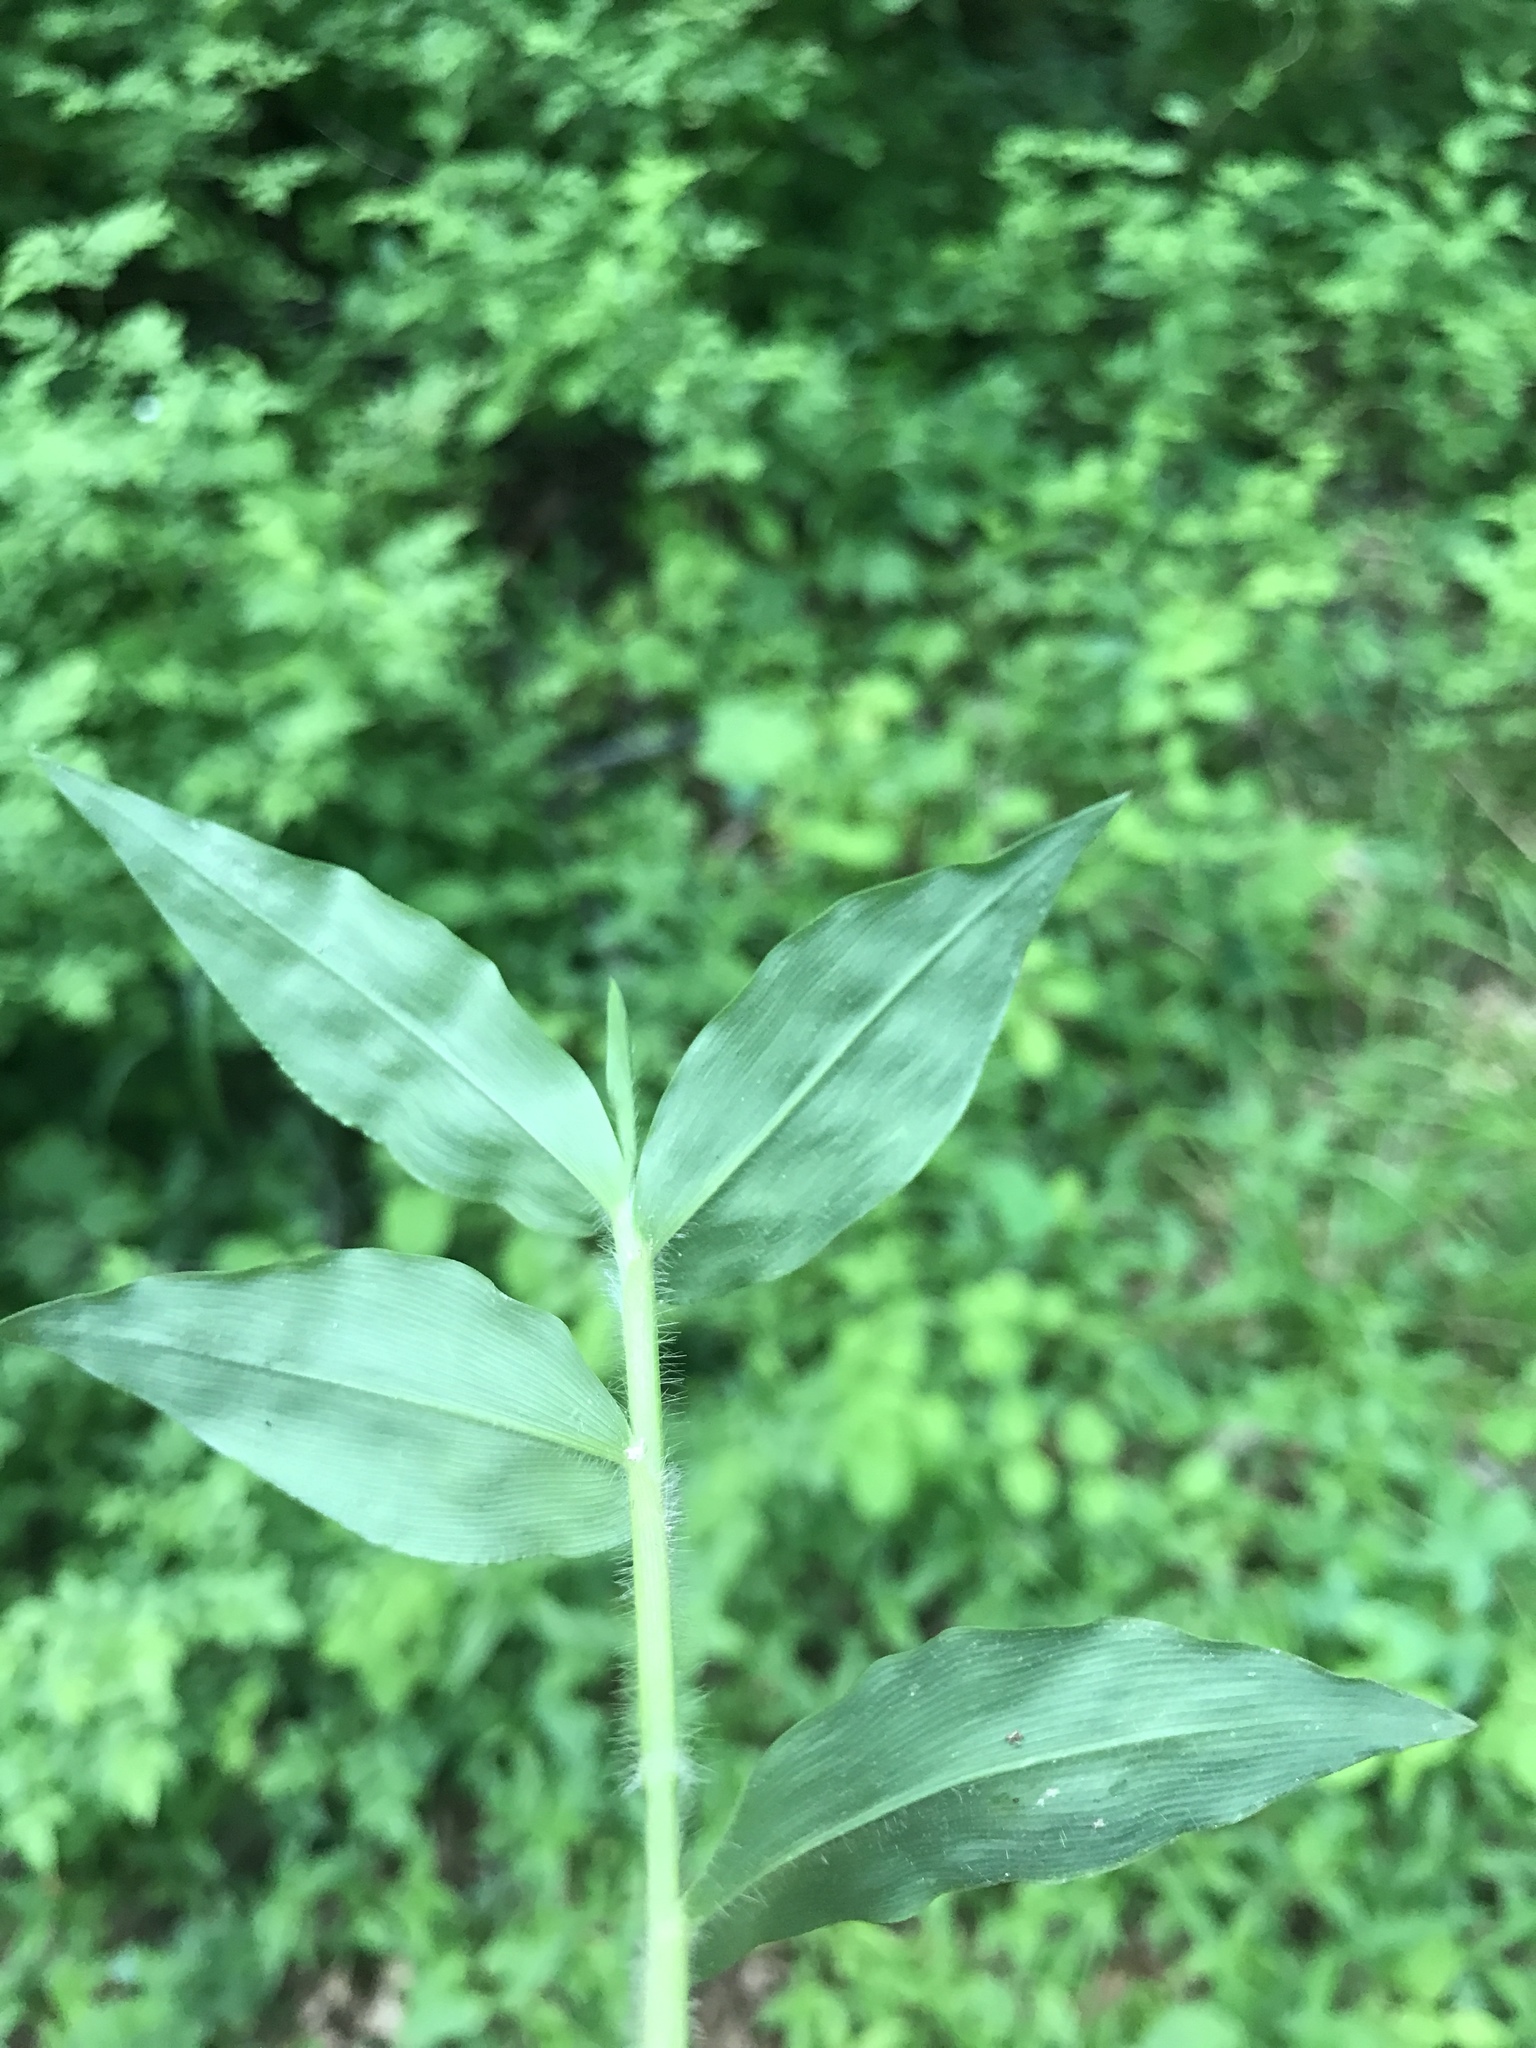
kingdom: Plantae
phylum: Tracheophyta
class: Liliopsida
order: Poales
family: Poaceae
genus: Oplismenus
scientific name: Oplismenus undulatifolius
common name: Wavyleaf basketgrass
